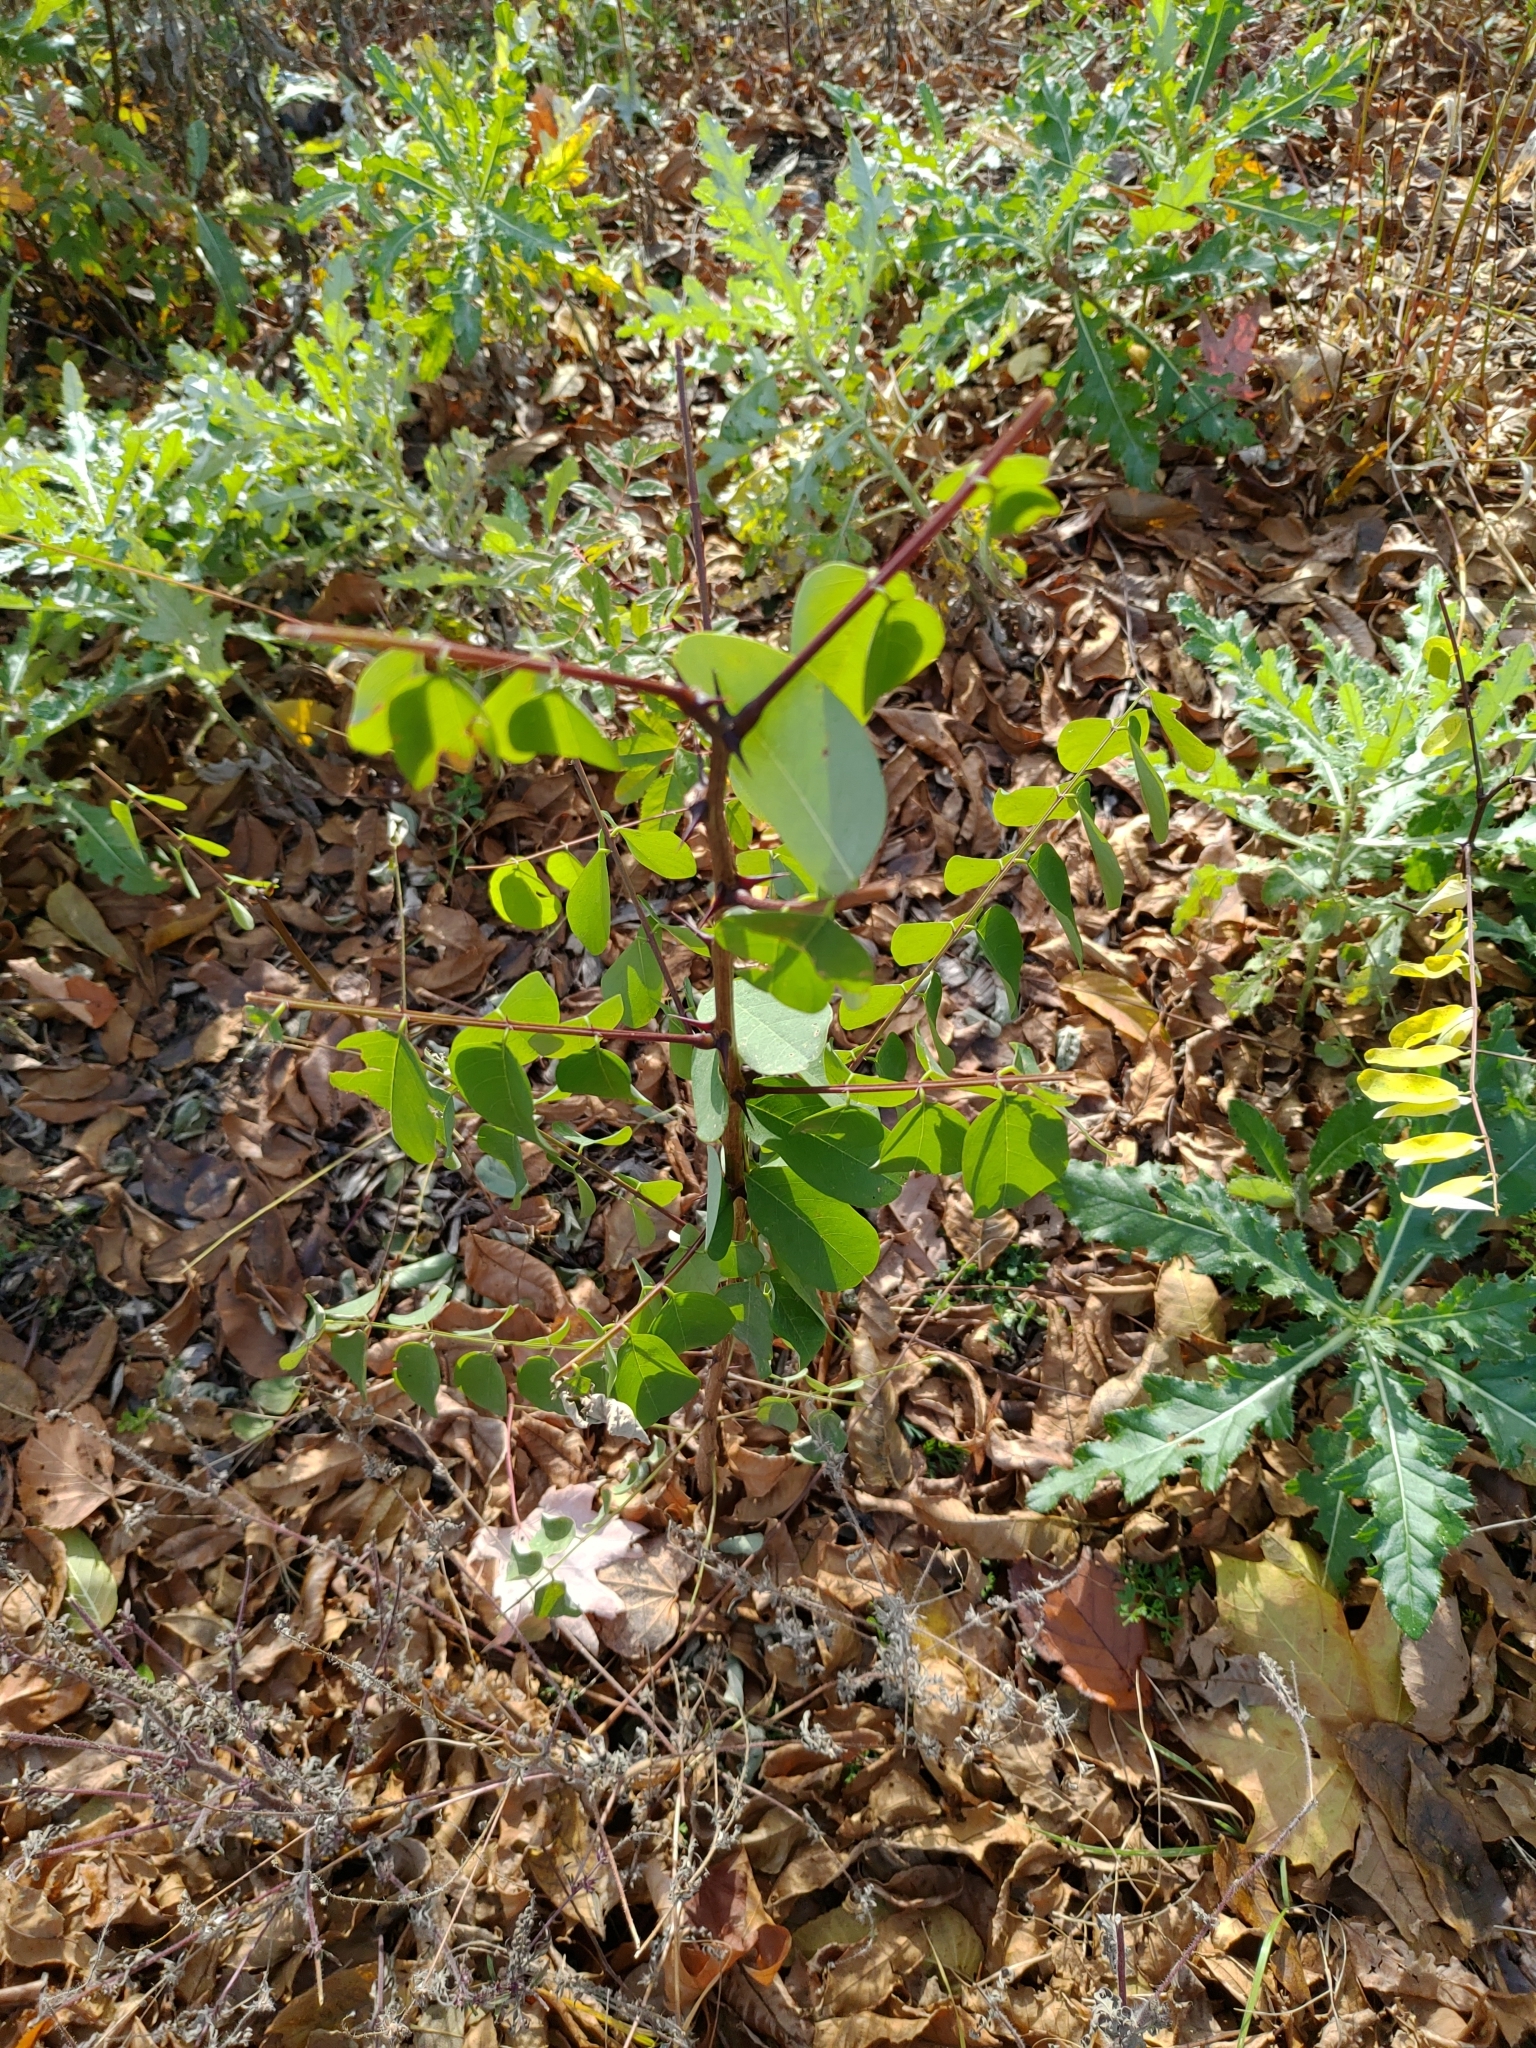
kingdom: Plantae
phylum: Tracheophyta
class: Magnoliopsida
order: Fabales
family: Fabaceae
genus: Robinia
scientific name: Robinia pseudoacacia
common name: Black locust
